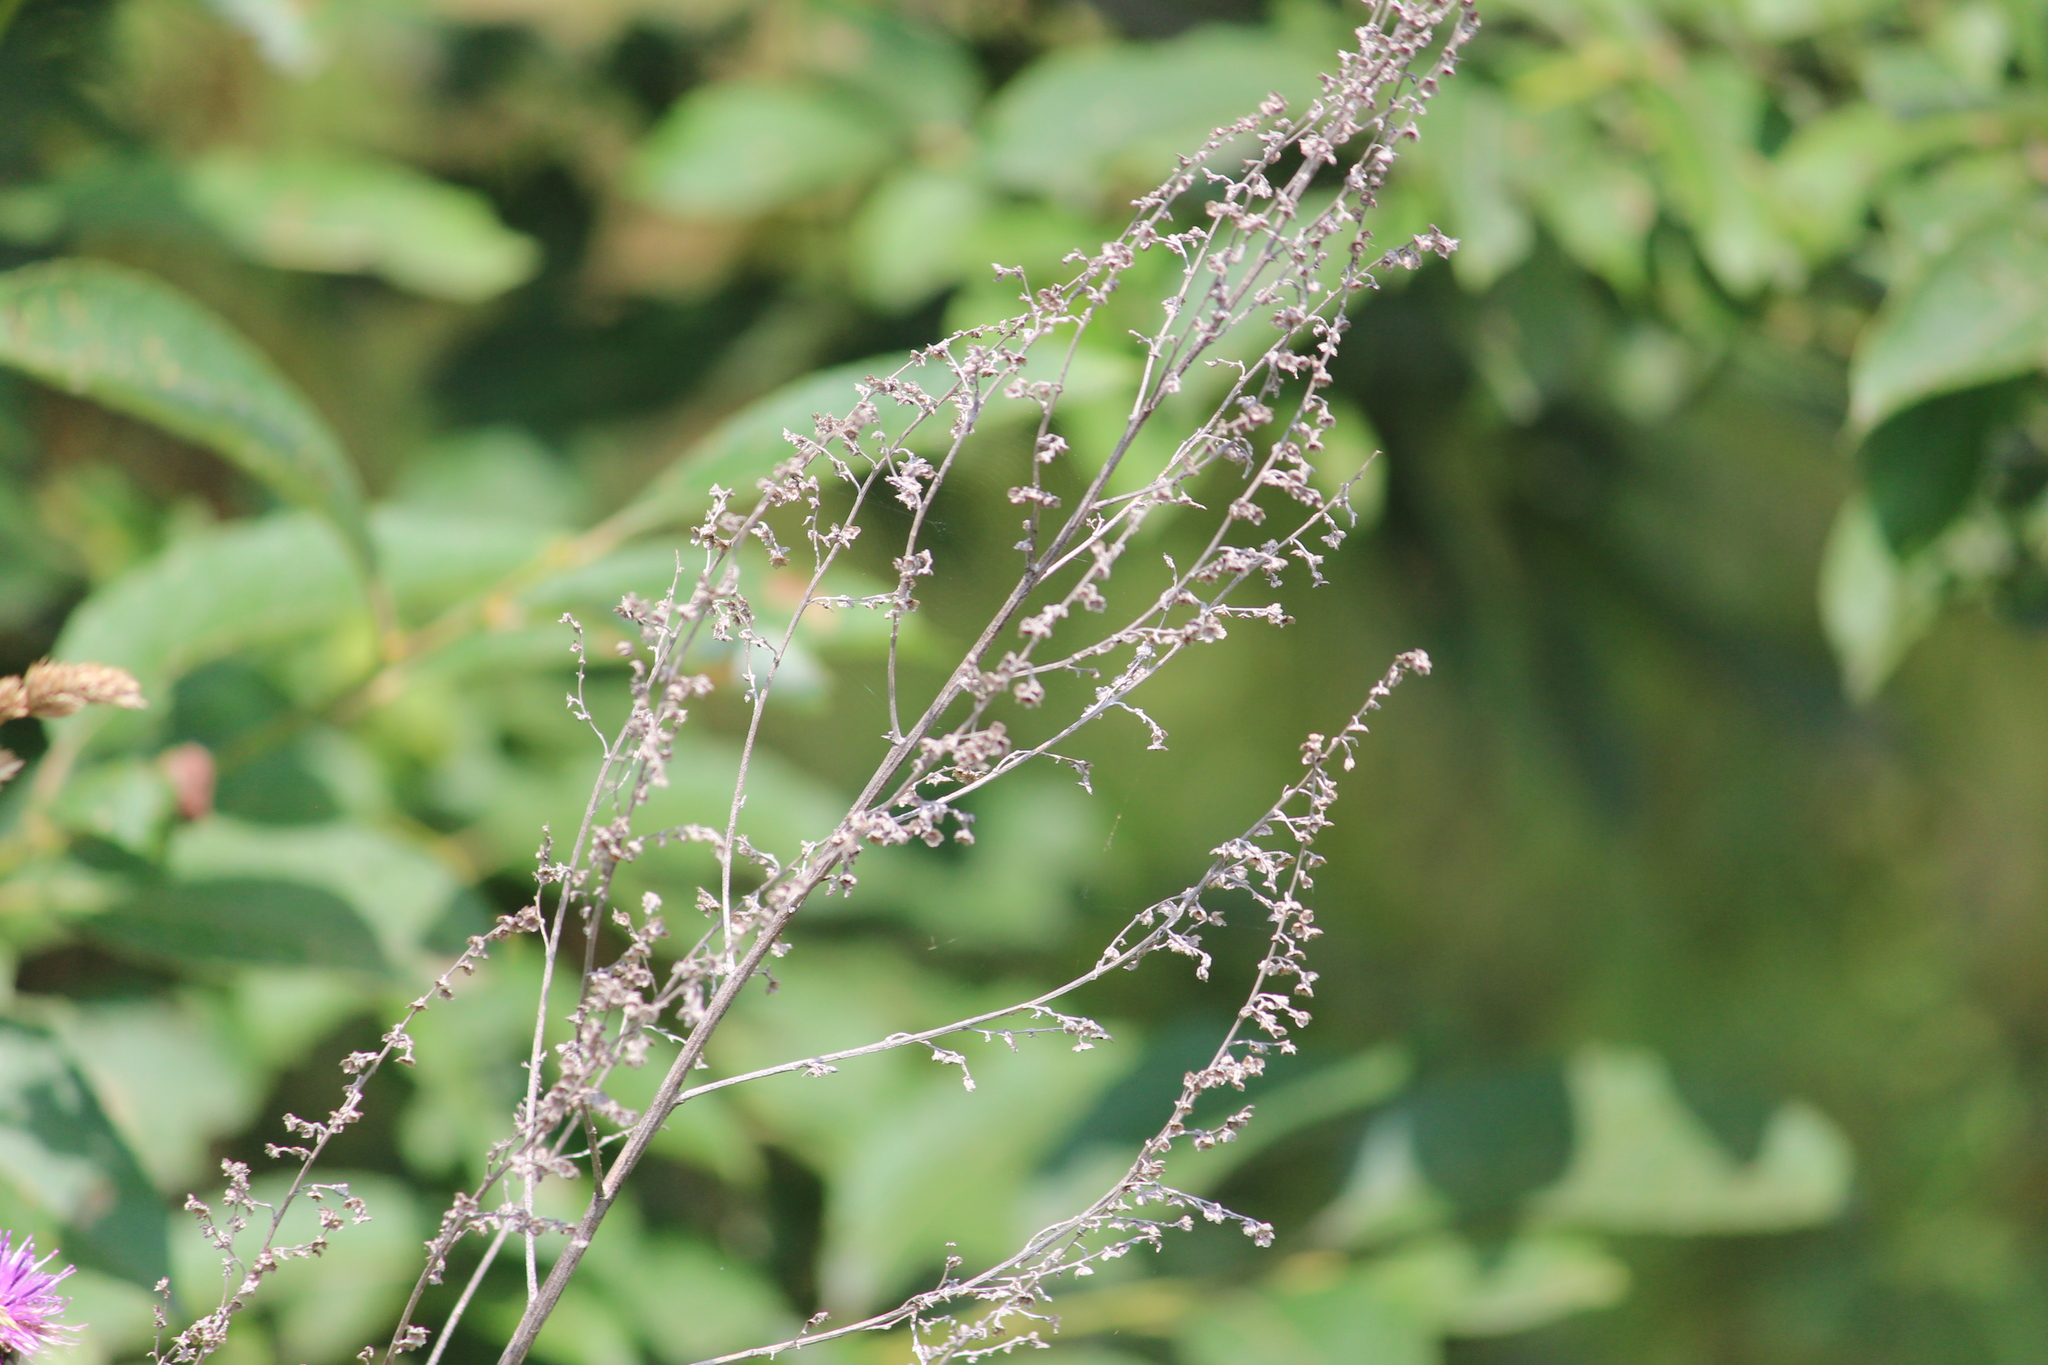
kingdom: Plantae
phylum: Tracheophyta
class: Magnoliopsida
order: Asterales
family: Asteraceae
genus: Artemisia
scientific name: Artemisia absinthium
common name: Wormwood
